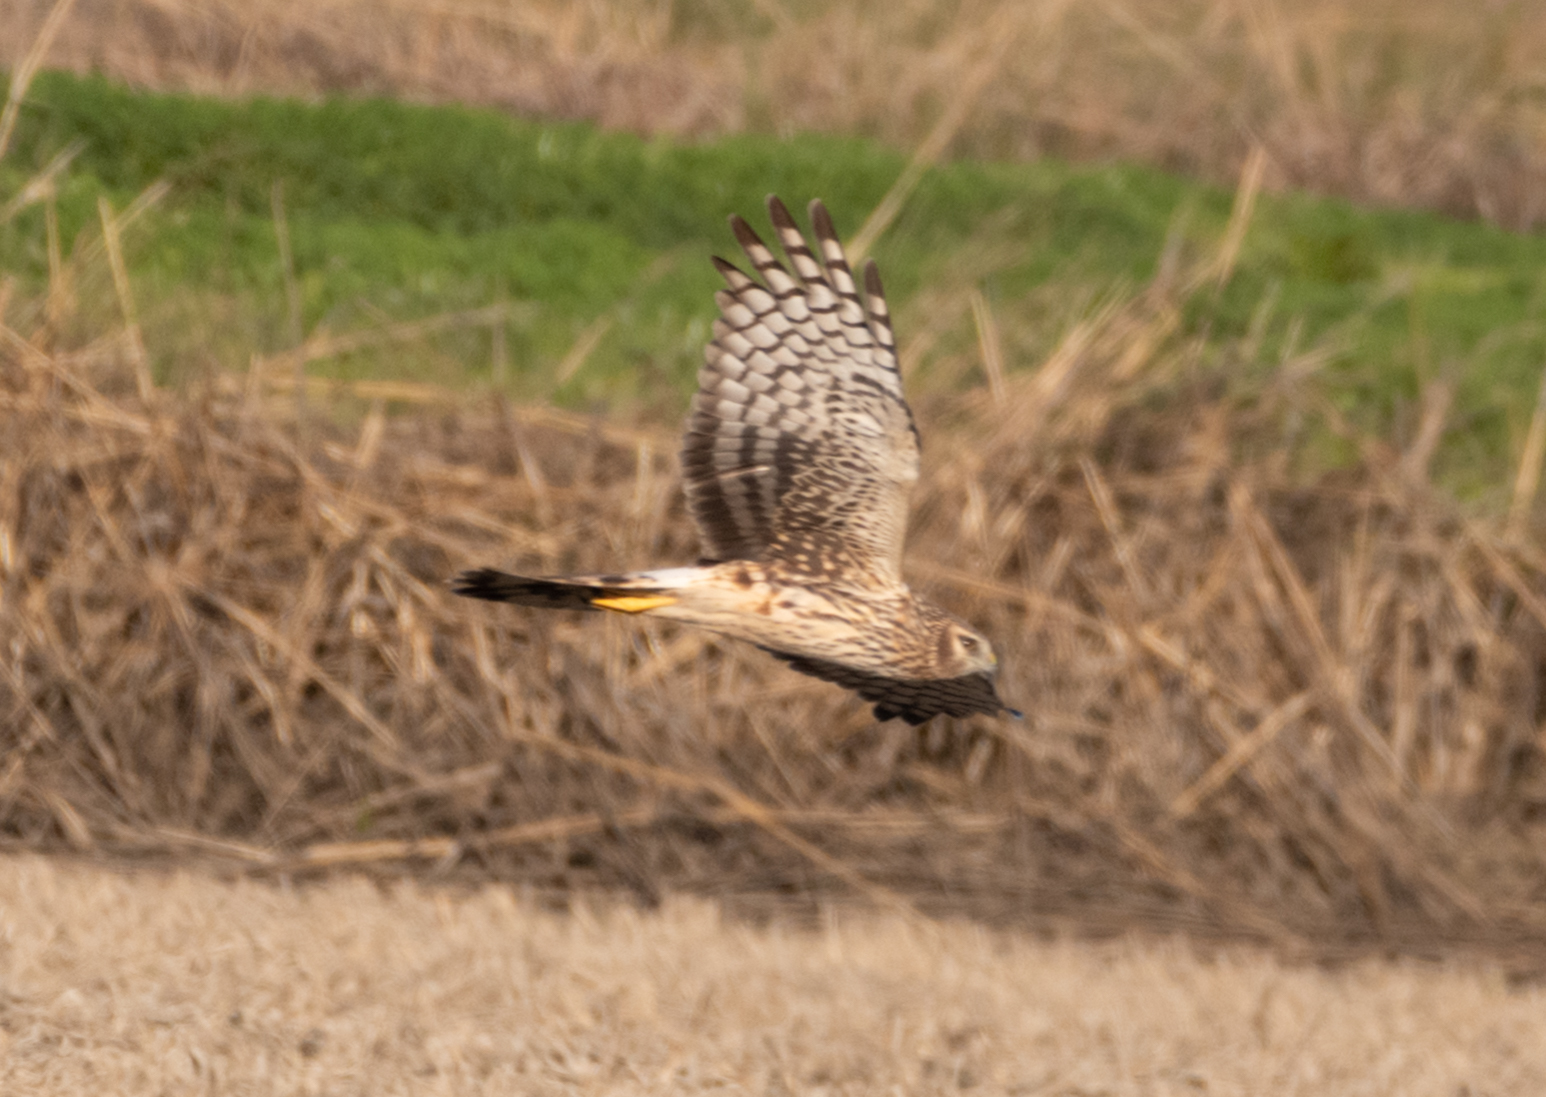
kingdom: Animalia
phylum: Chordata
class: Aves
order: Accipitriformes
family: Accipitridae
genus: Circus
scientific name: Circus cyaneus
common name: Hen harrier
